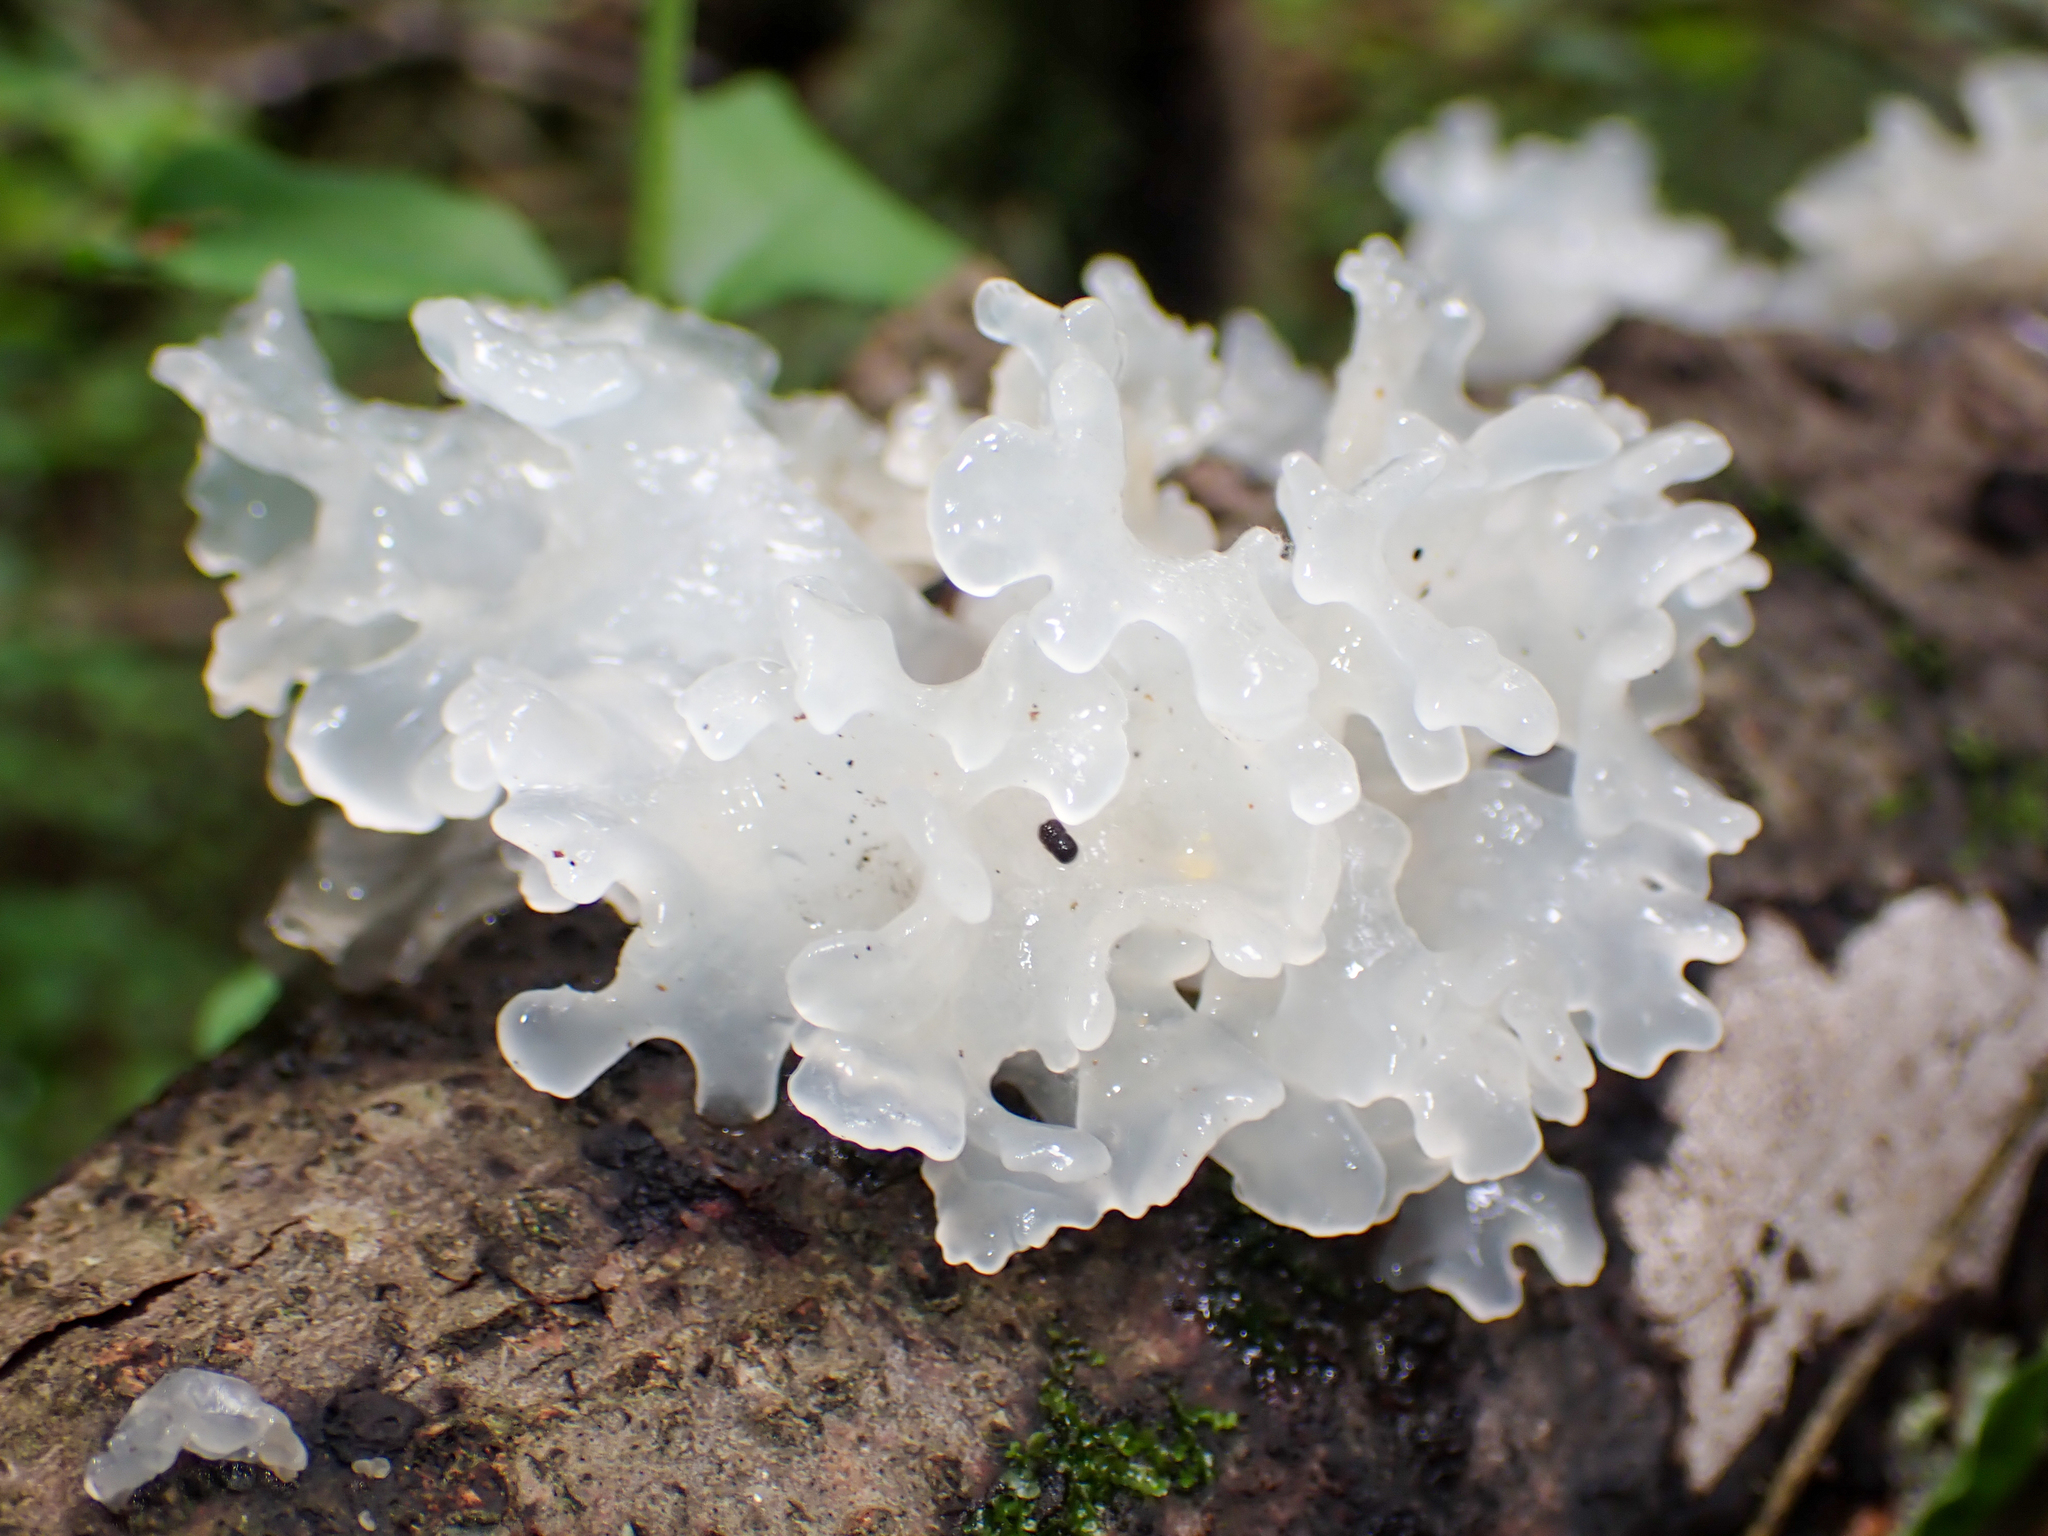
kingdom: Fungi
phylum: Basidiomycota
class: Tremellomycetes
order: Tremellales
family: Tremellaceae
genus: Tremella
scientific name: Tremella fuciformis
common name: Snow fungus
